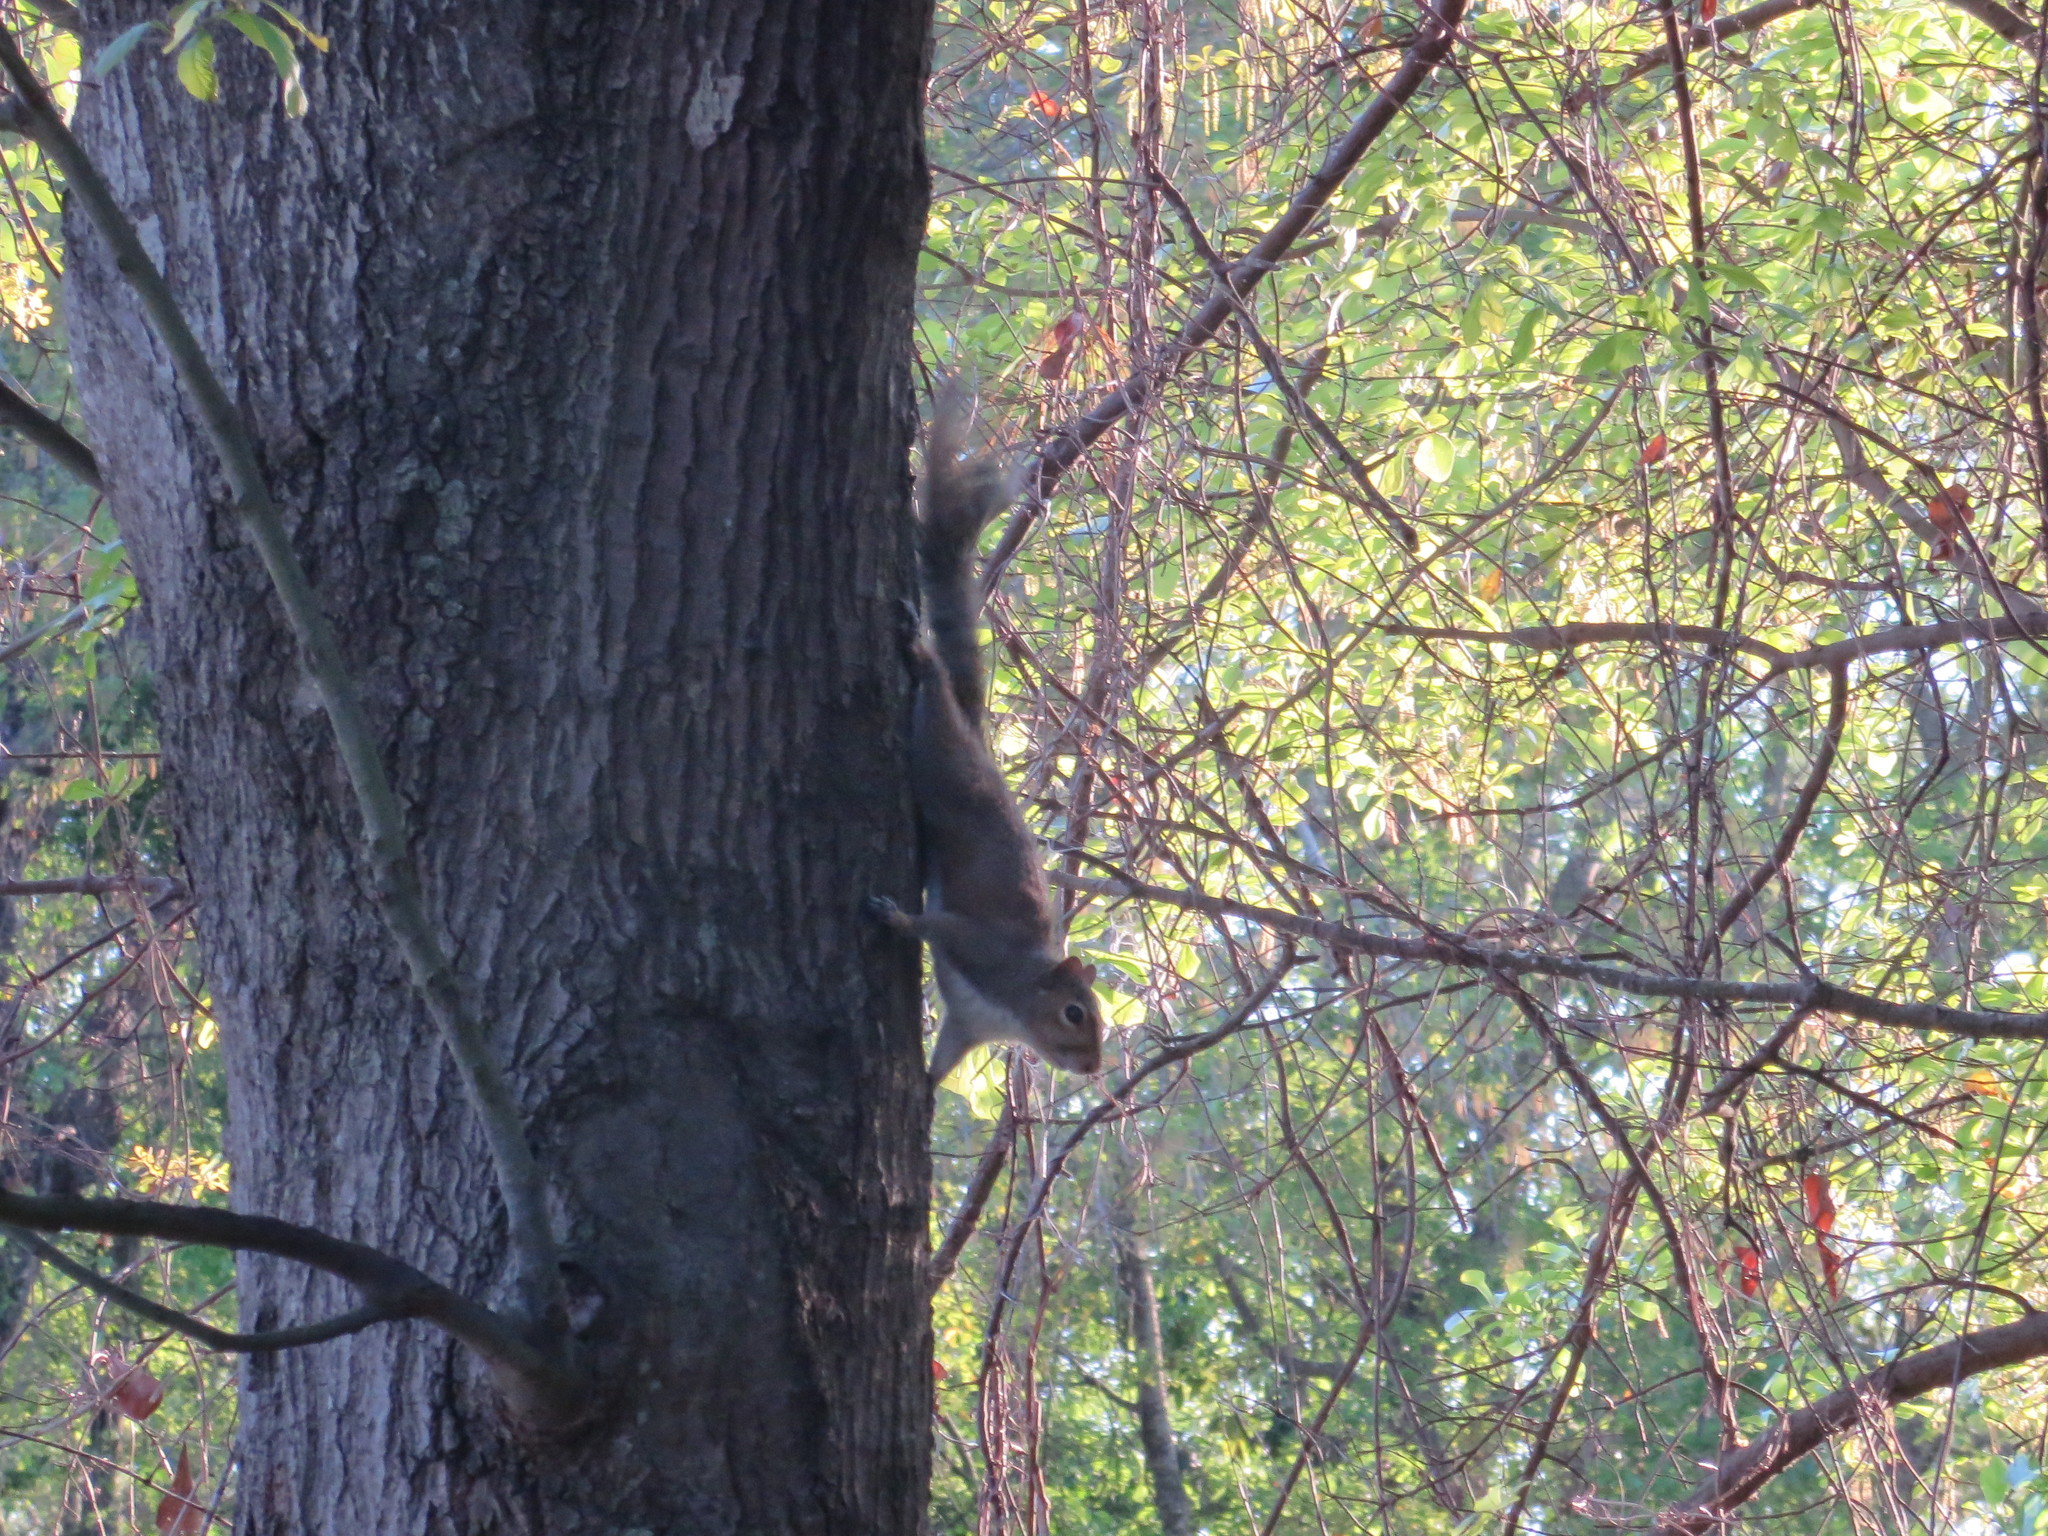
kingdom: Animalia
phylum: Chordata
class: Mammalia
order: Rodentia
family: Sciuridae
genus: Sciurus
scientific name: Sciurus carolinensis
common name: Eastern gray squirrel
